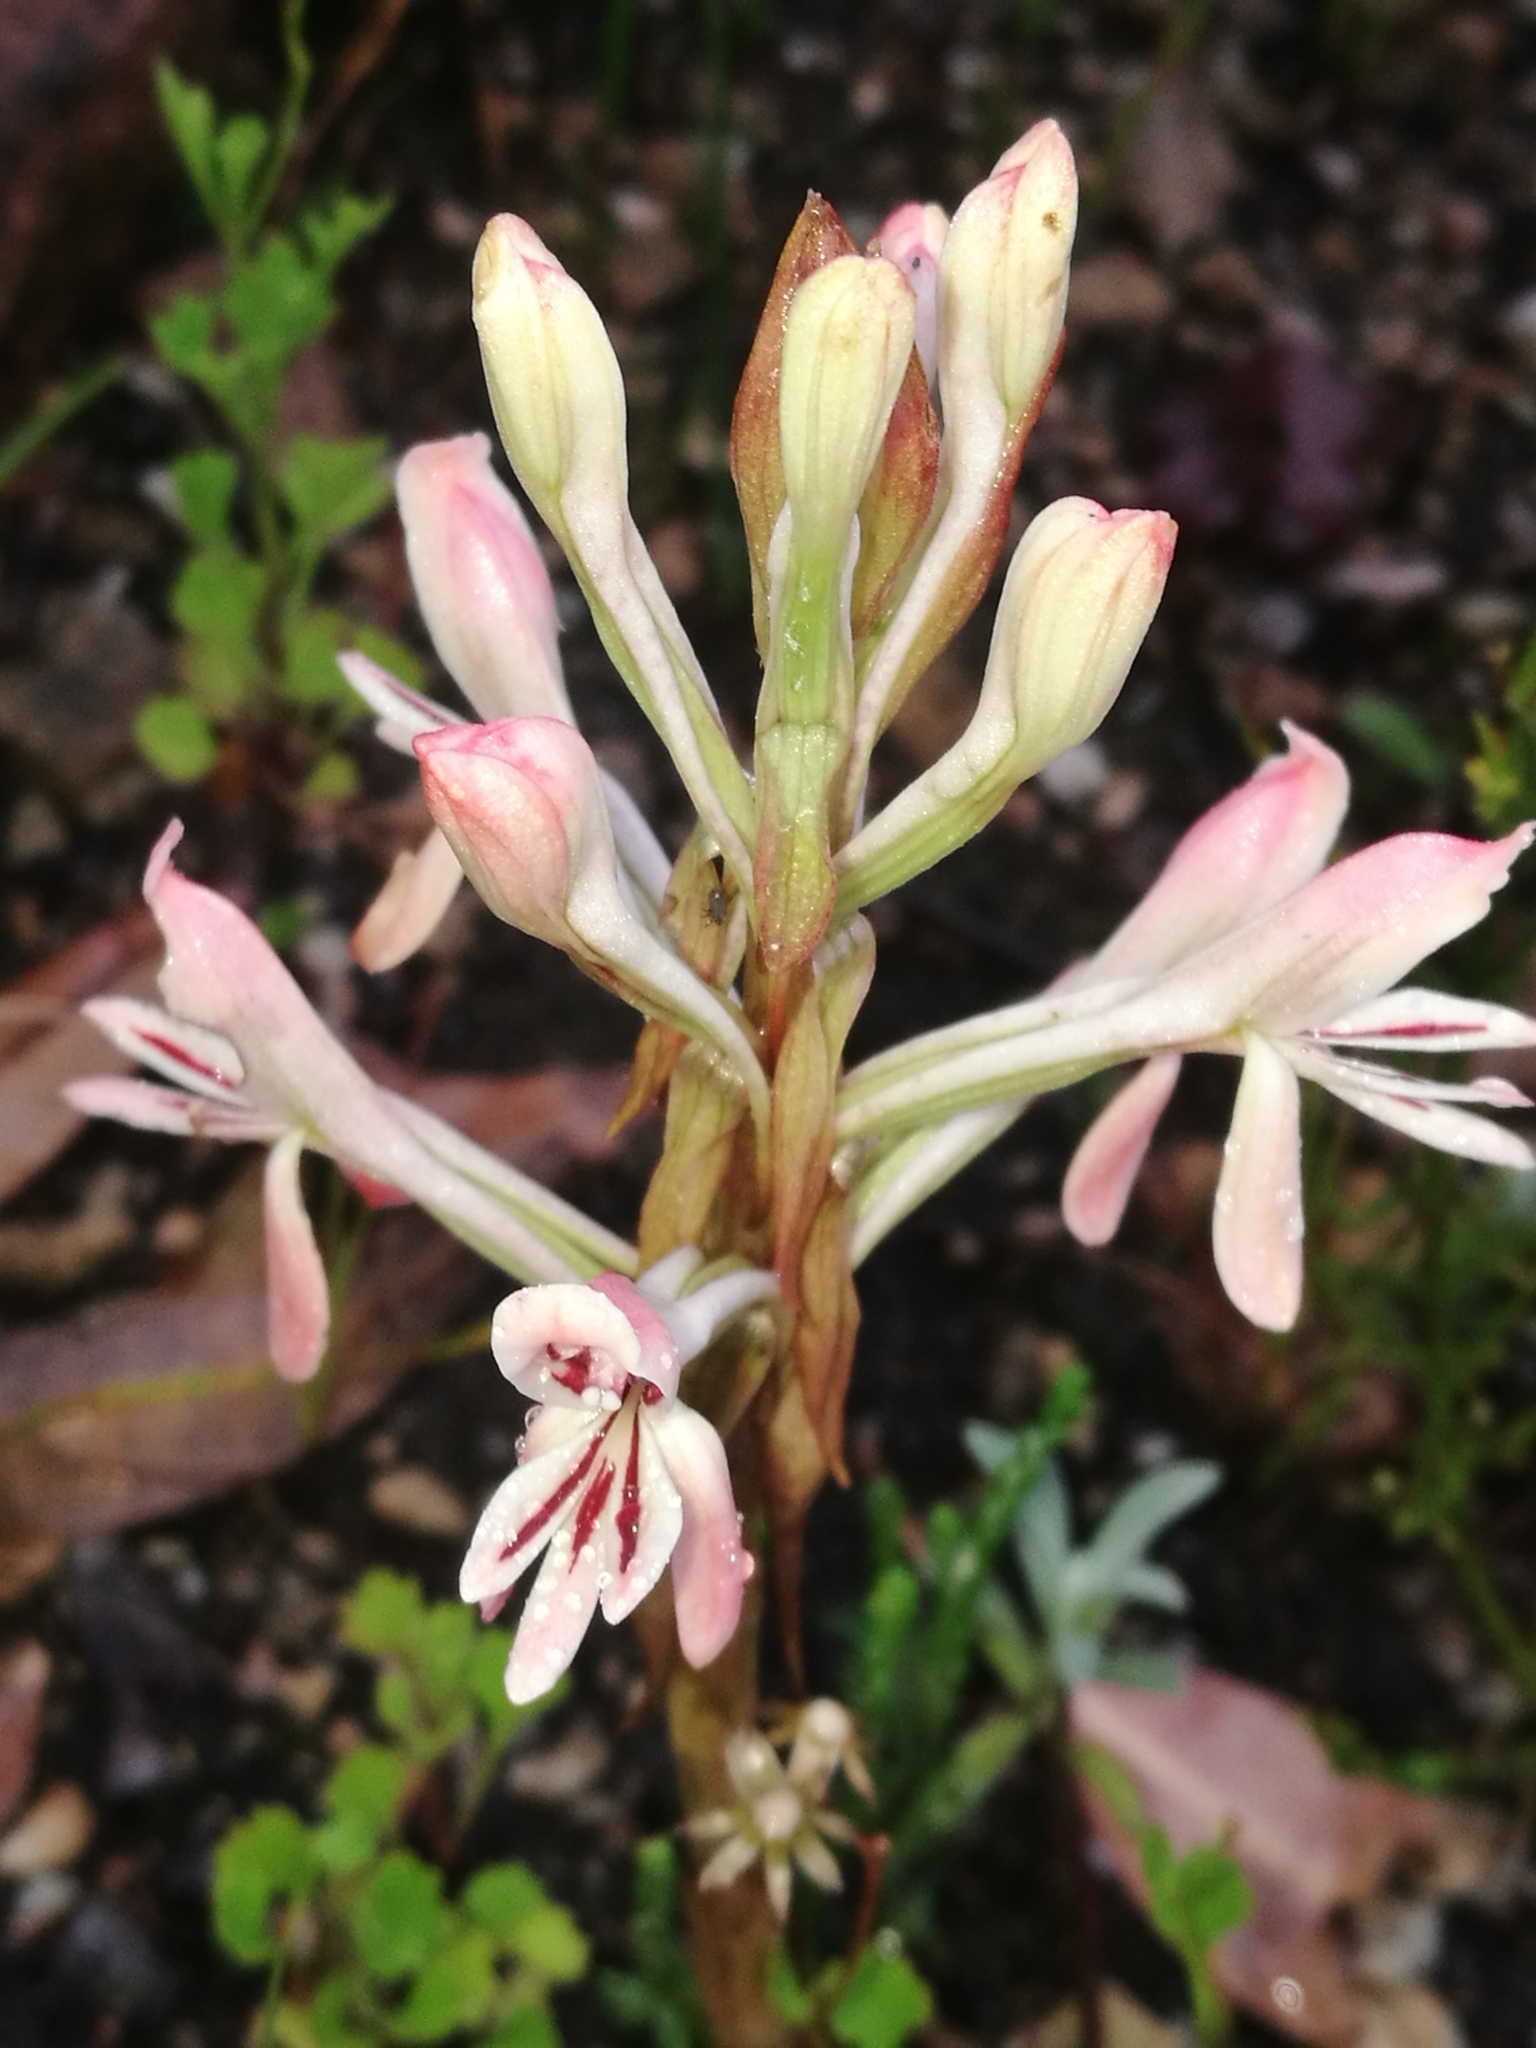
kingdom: Plantae
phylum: Tracheophyta
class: Liliopsida
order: Asparagales
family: Orchidaceae
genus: Satyrium
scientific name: Satyrium longicolle
